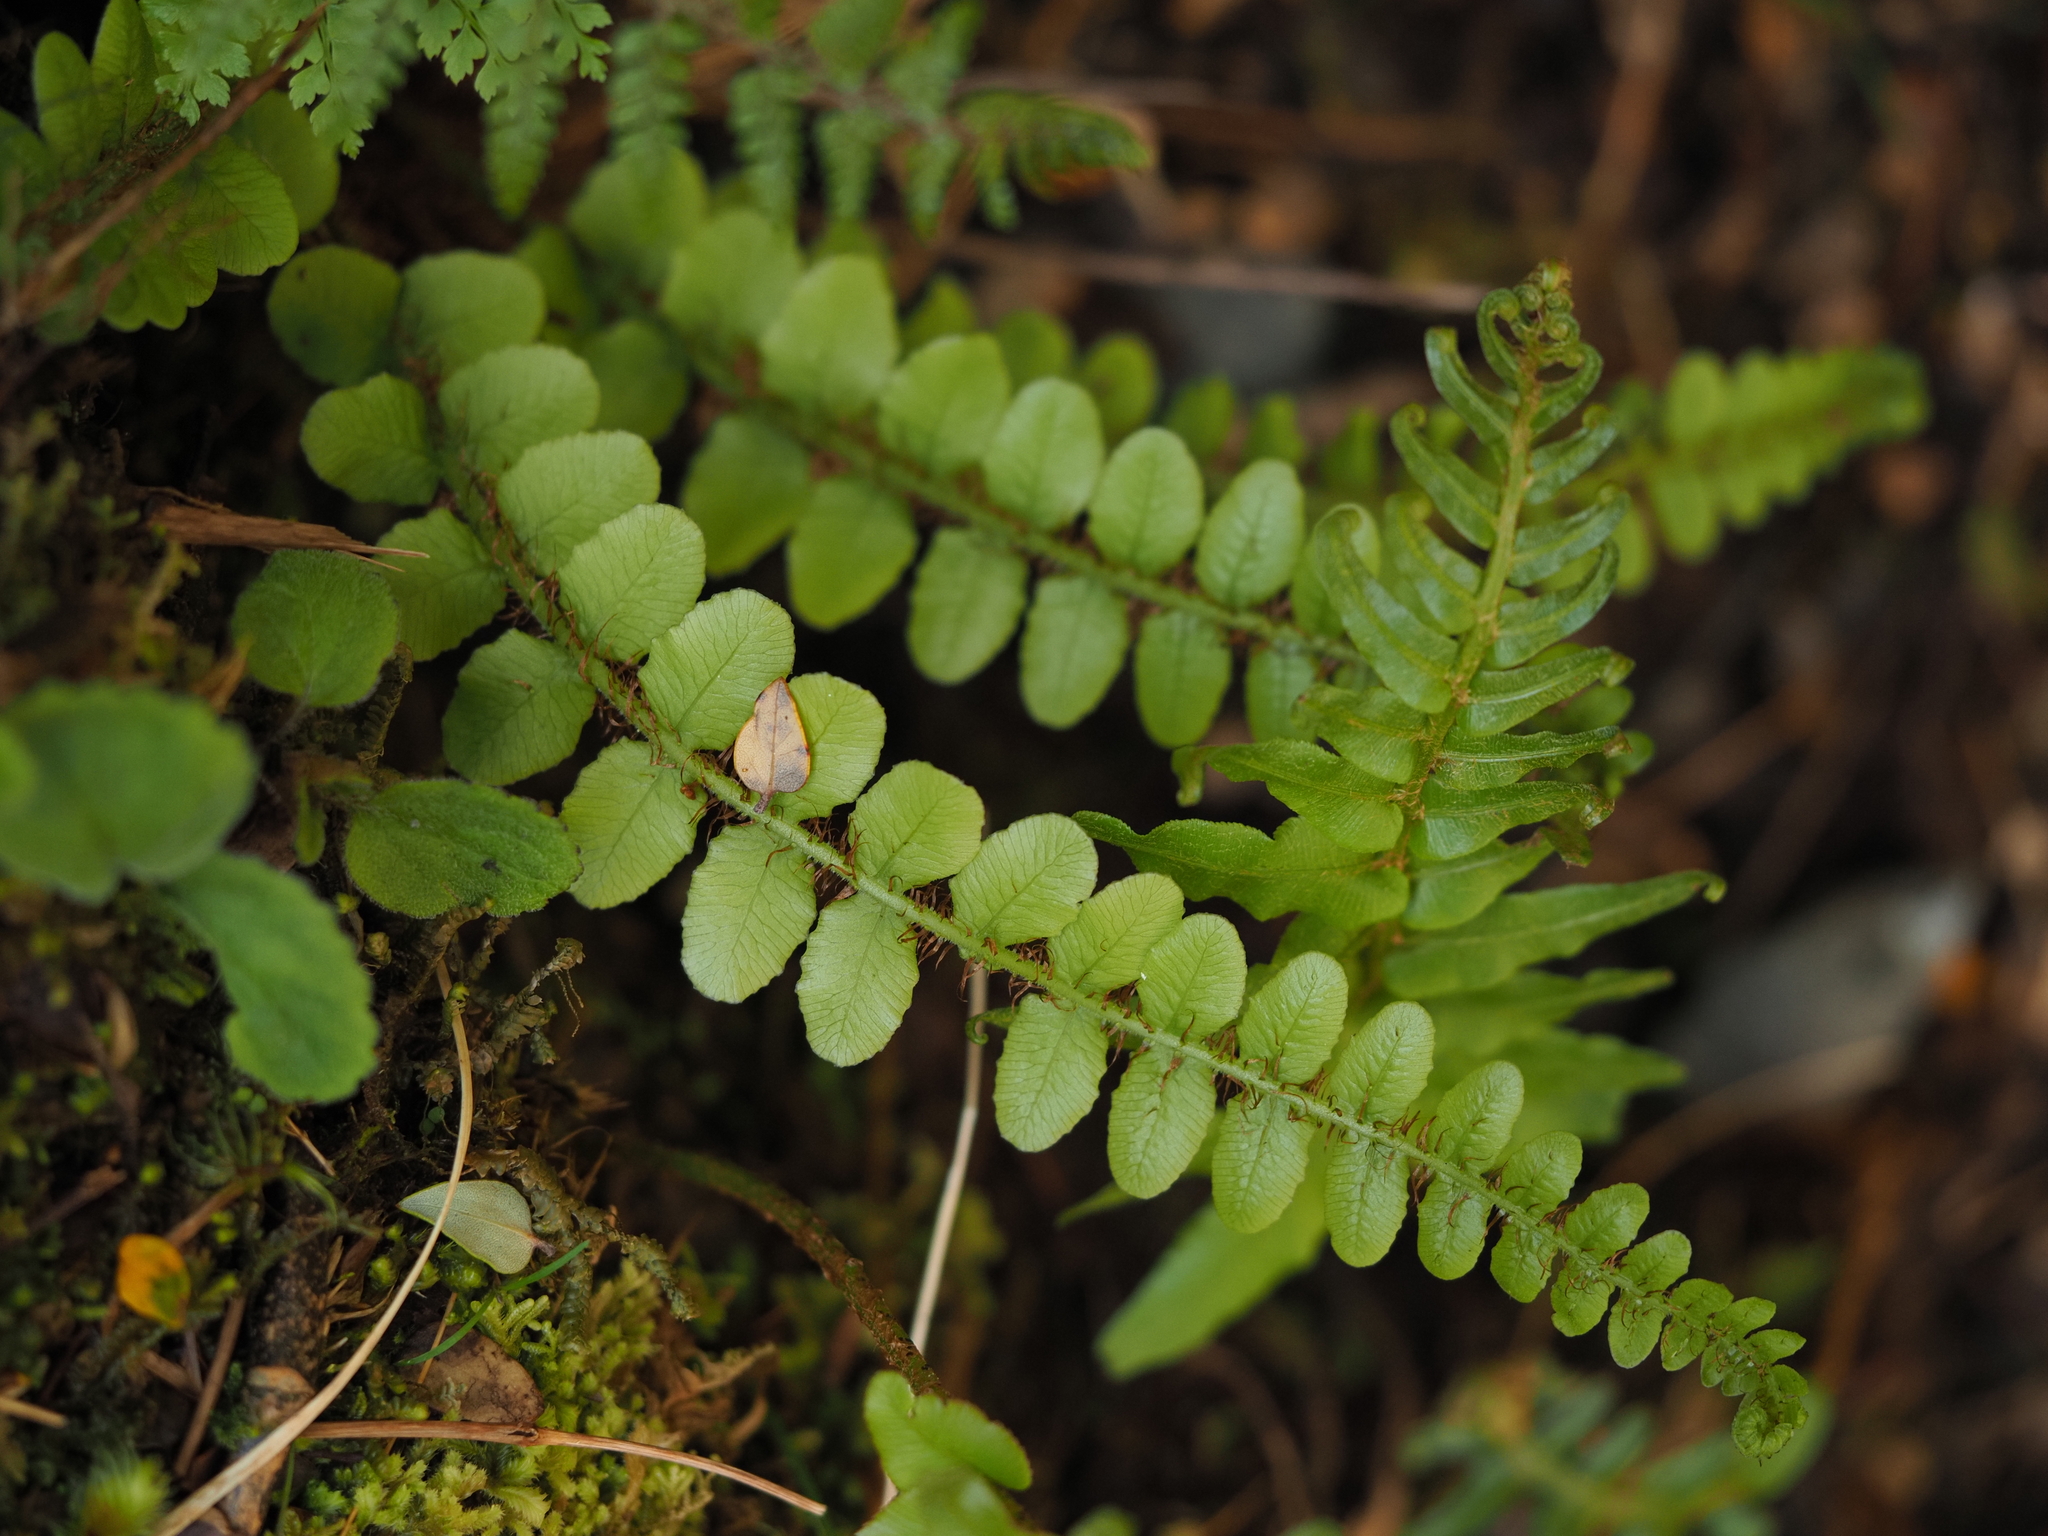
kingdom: Plantae
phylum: Tracheophyta
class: Polypodiopsida
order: Polypodiales
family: Blechnaceae
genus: Cranfillia
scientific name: Cranfillia fluviatilis
